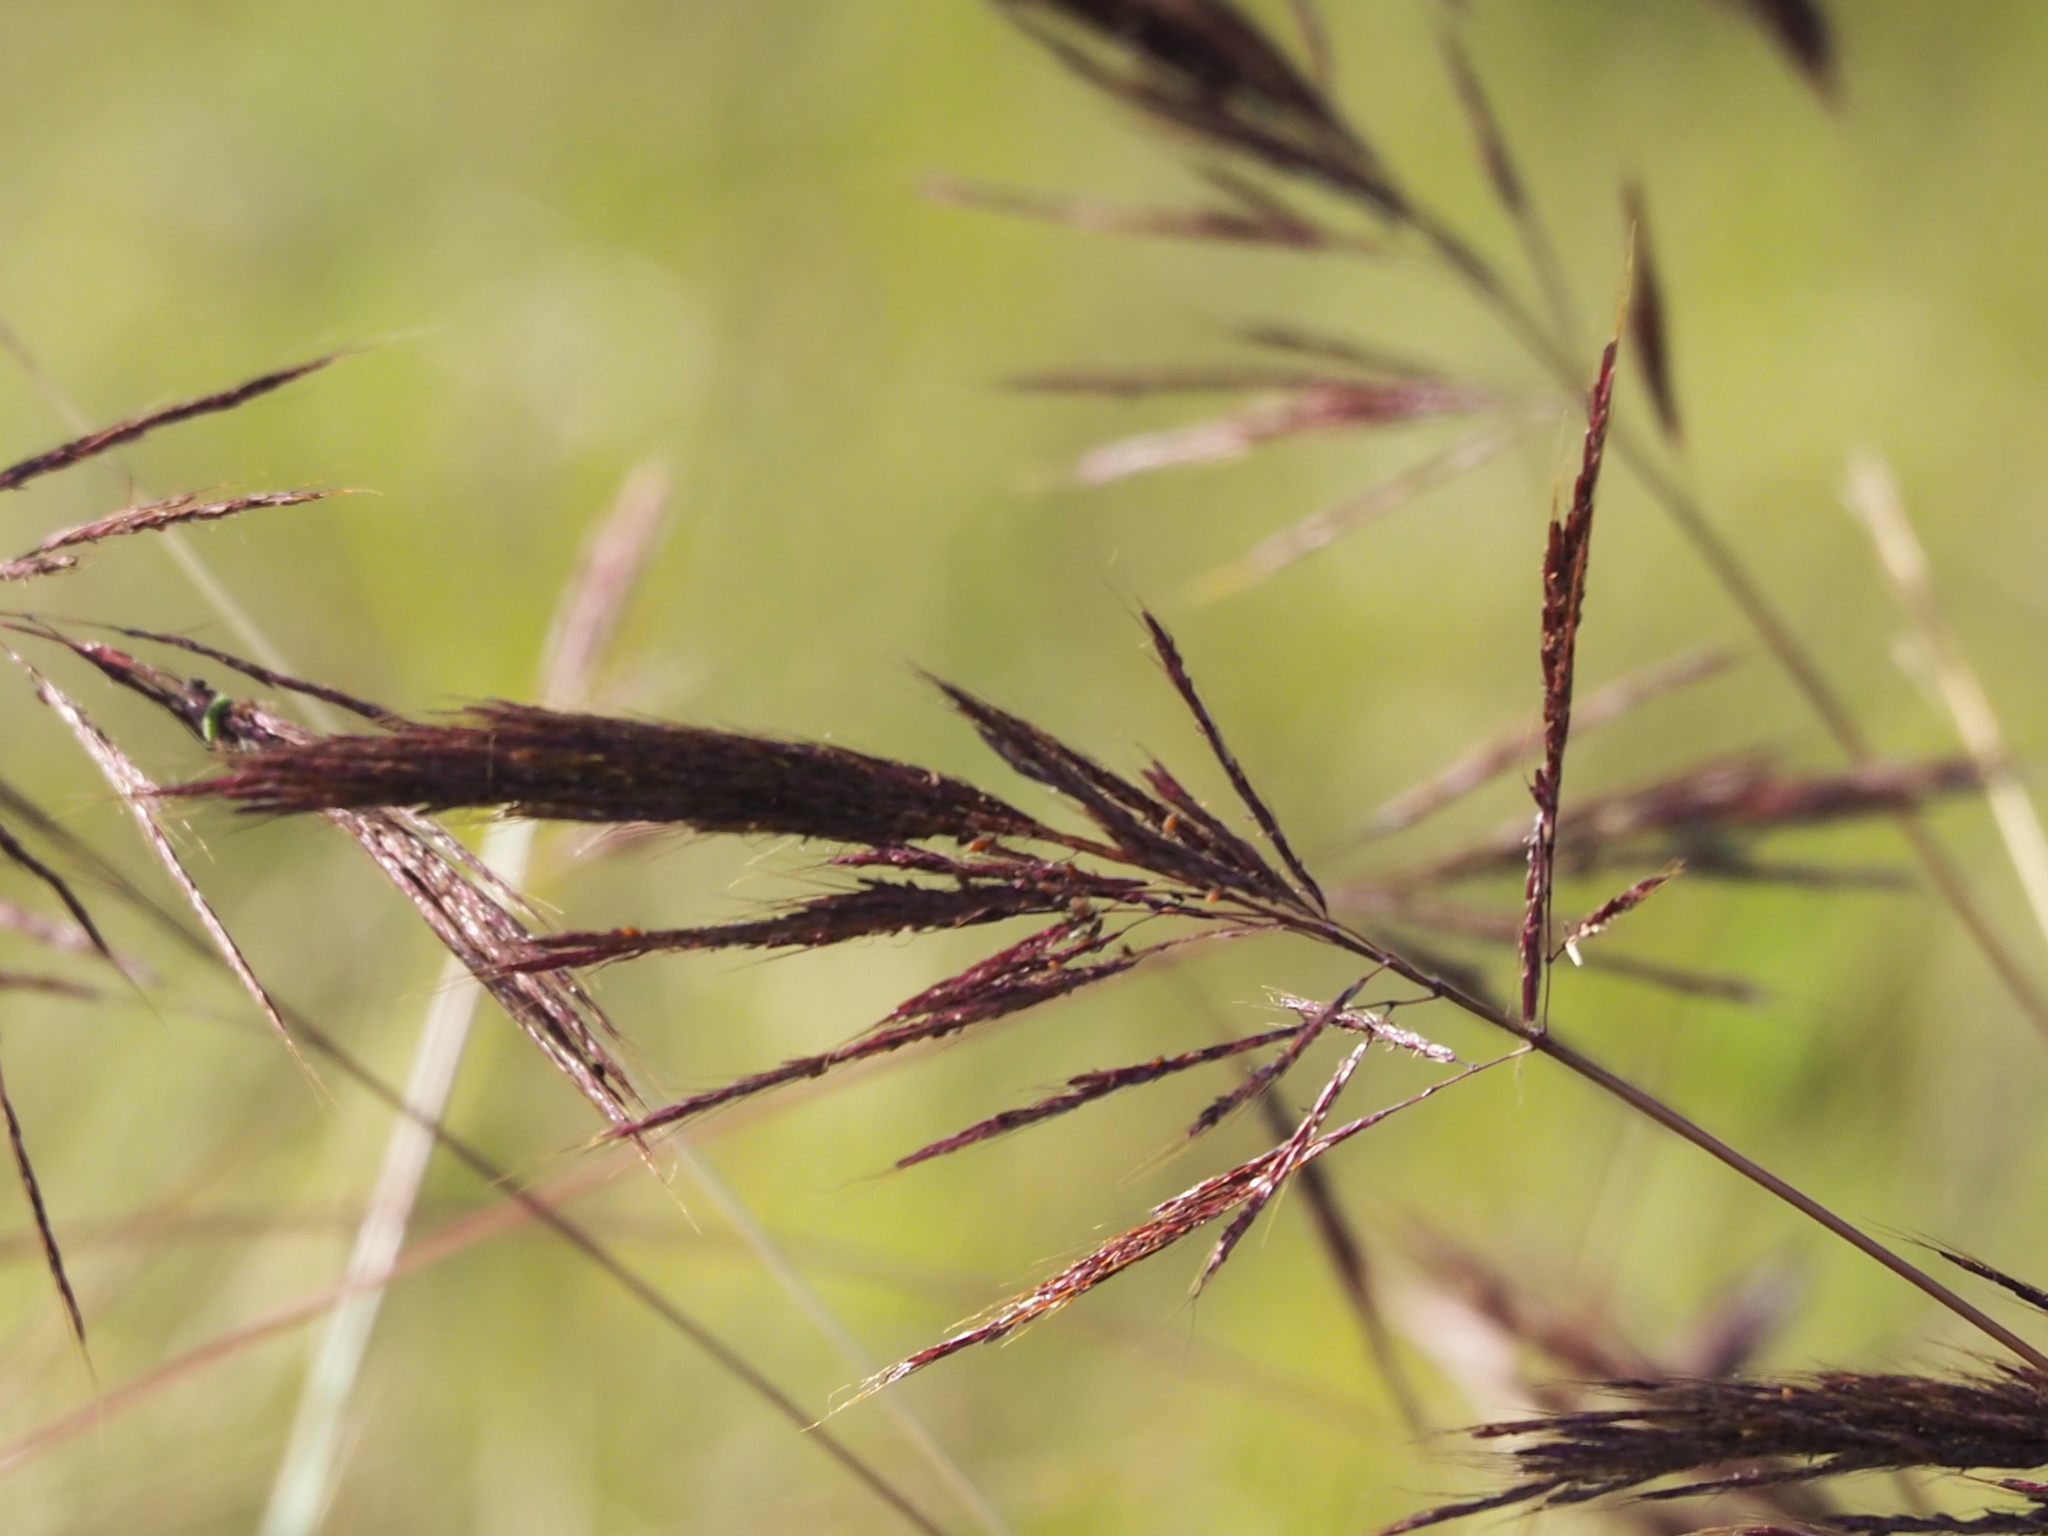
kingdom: Plantae
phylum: Tracheophyta
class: Liliopsida
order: Poales
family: Poaceae
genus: Bothriochloa
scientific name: Bothriochloa bladhii
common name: Caucasian bluestem
